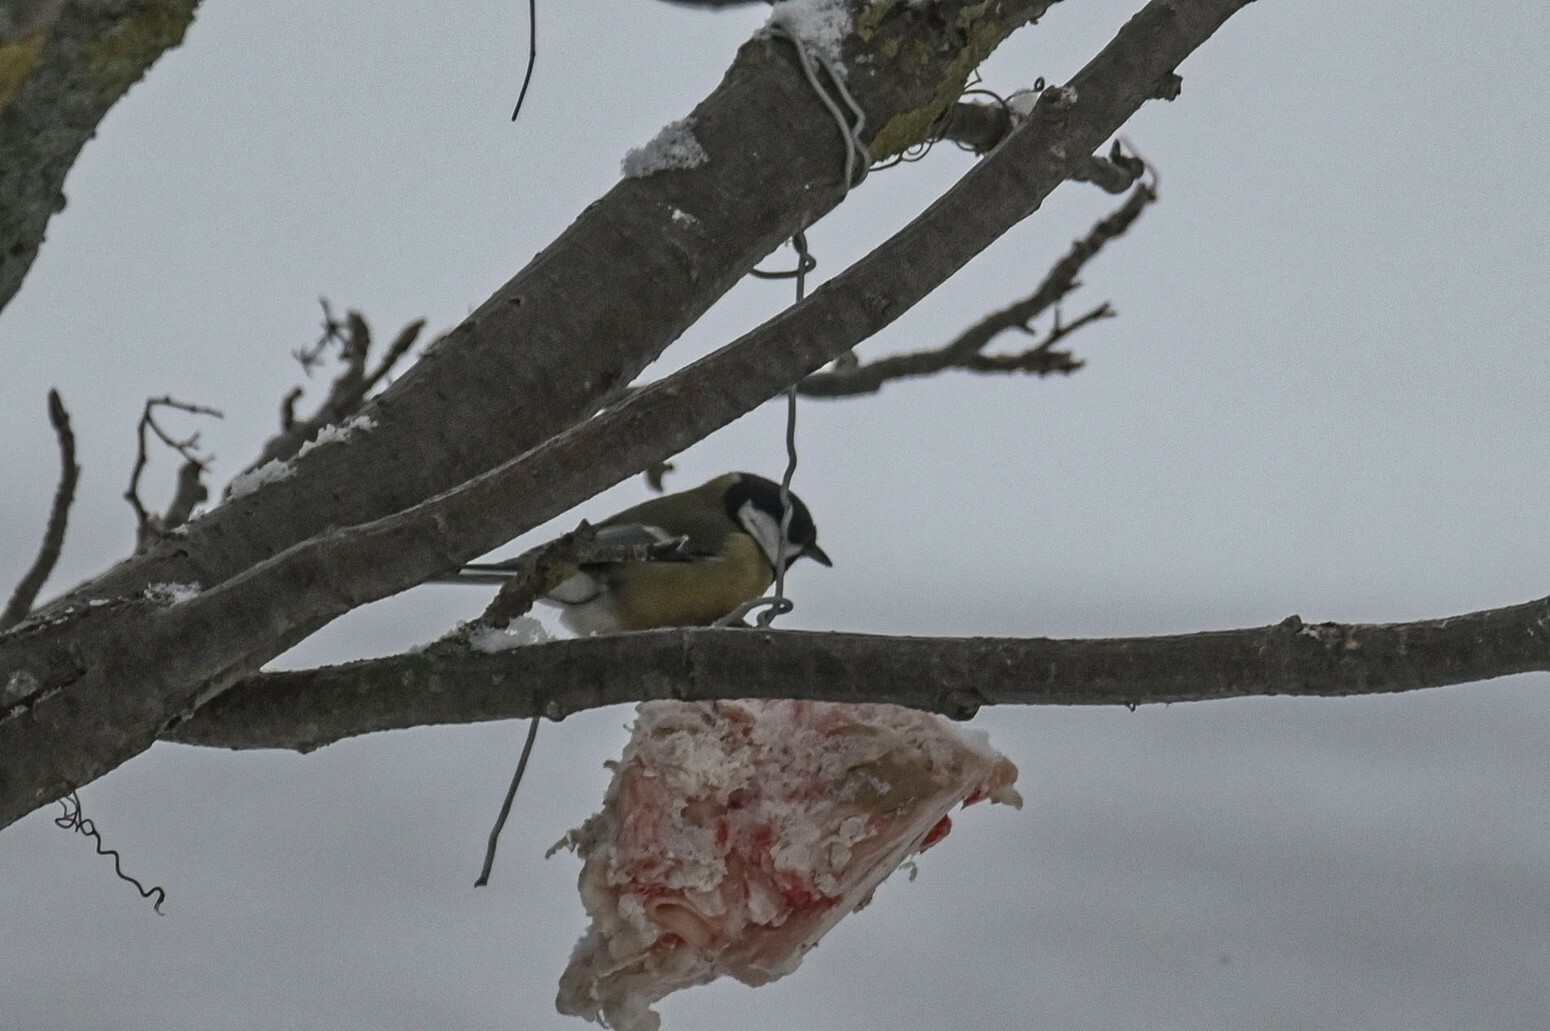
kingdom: Animalia
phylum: Chordata
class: Aves
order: Passeriformes
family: Paridae
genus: Parus
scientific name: Parus major
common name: Great tit
